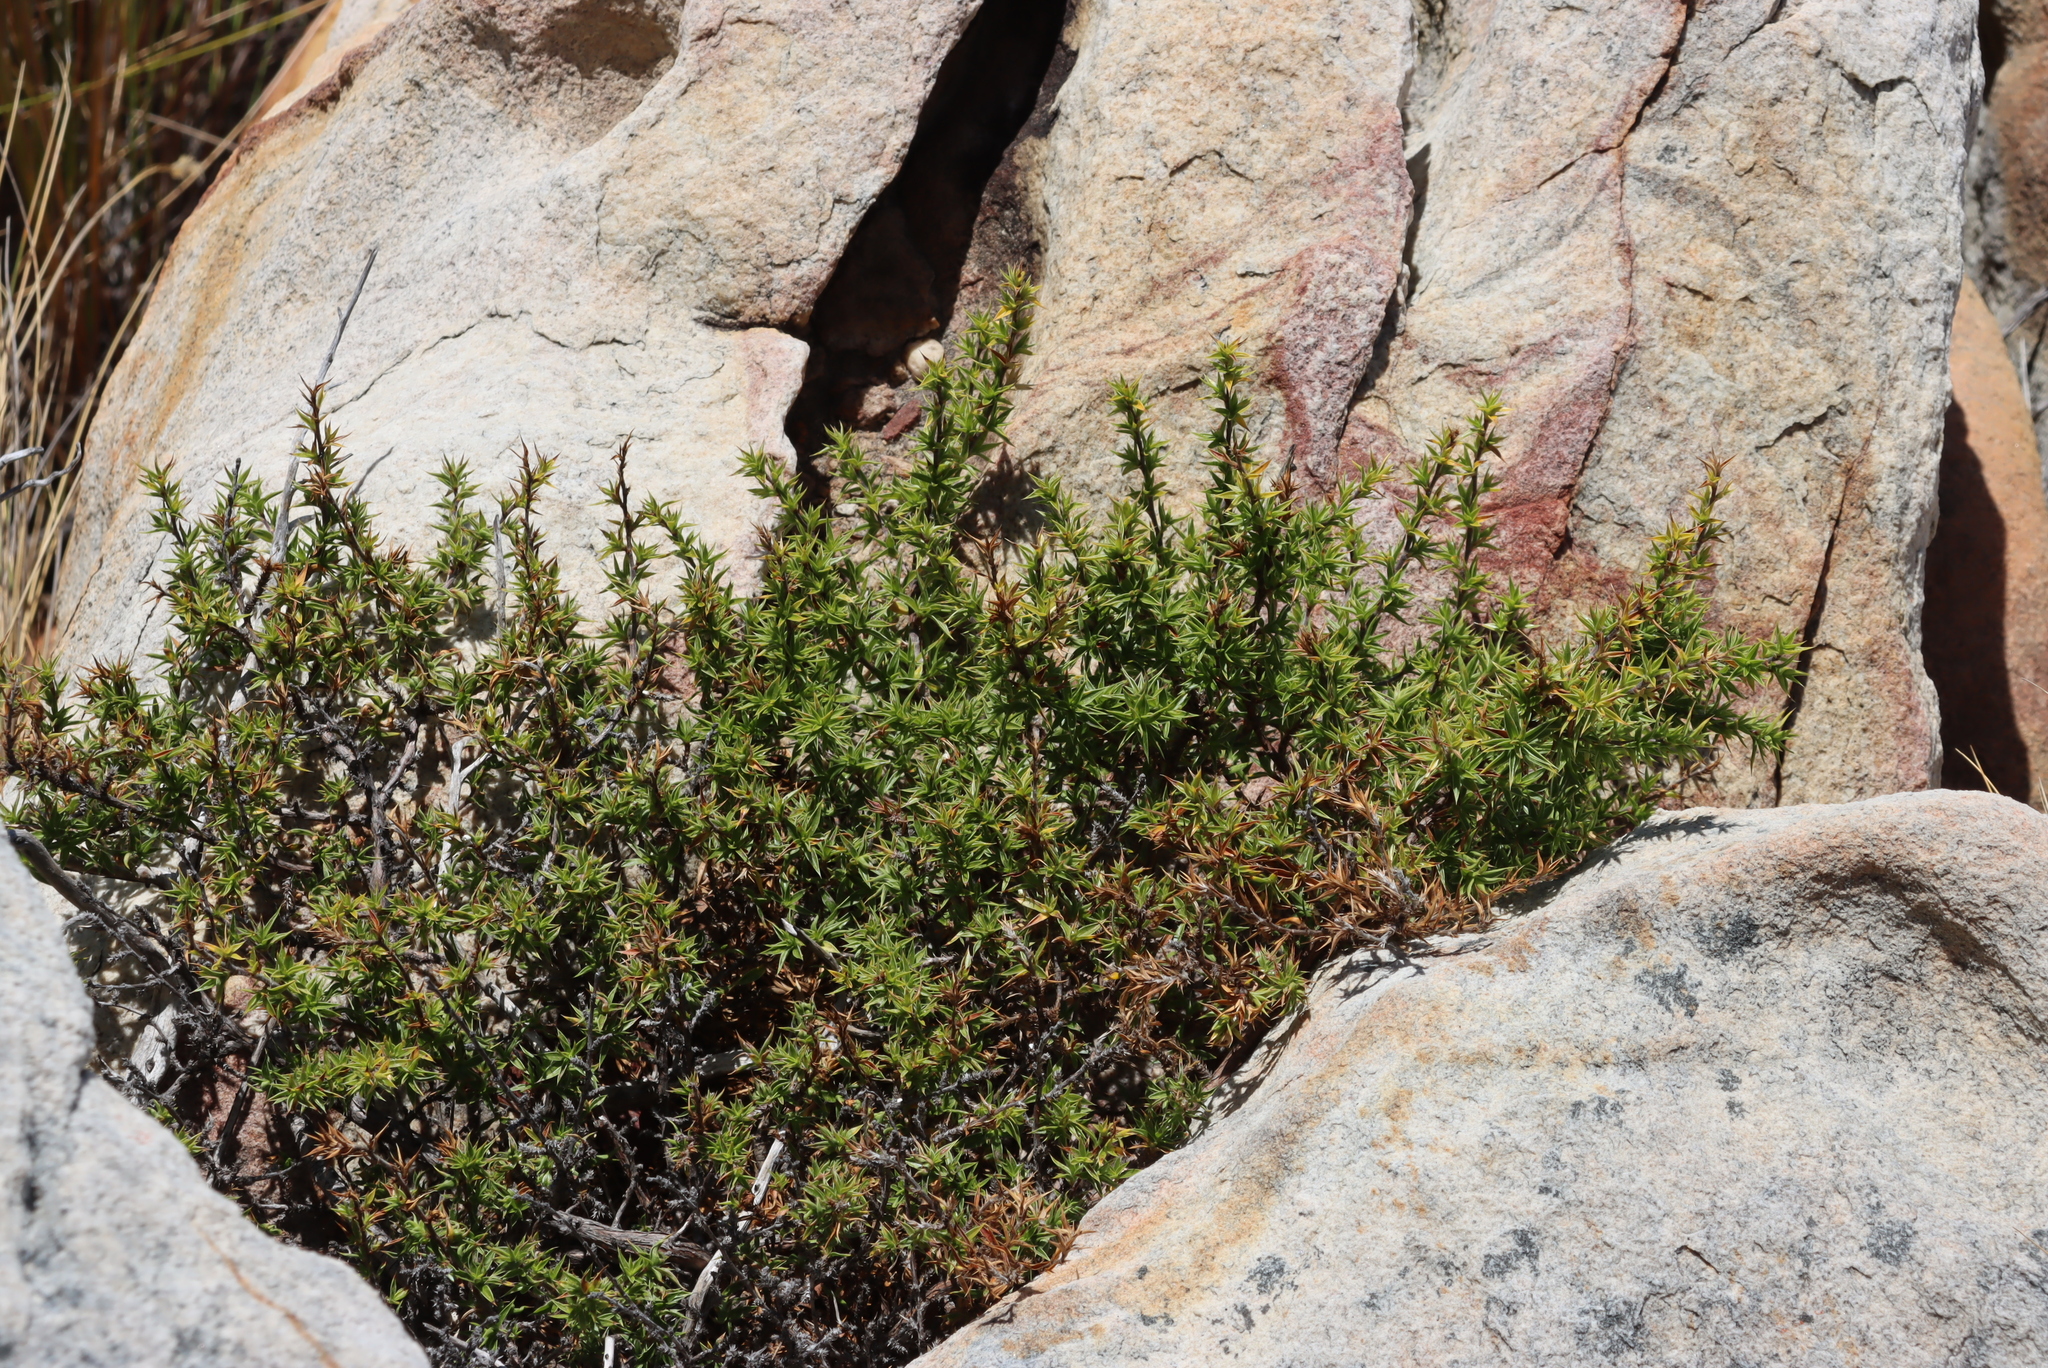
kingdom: Plantae
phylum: Tracheophyta
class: Magnoliopsida
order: Rosales
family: Rosaceae
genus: Cliffortia
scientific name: Cliffortia ruscifolia
